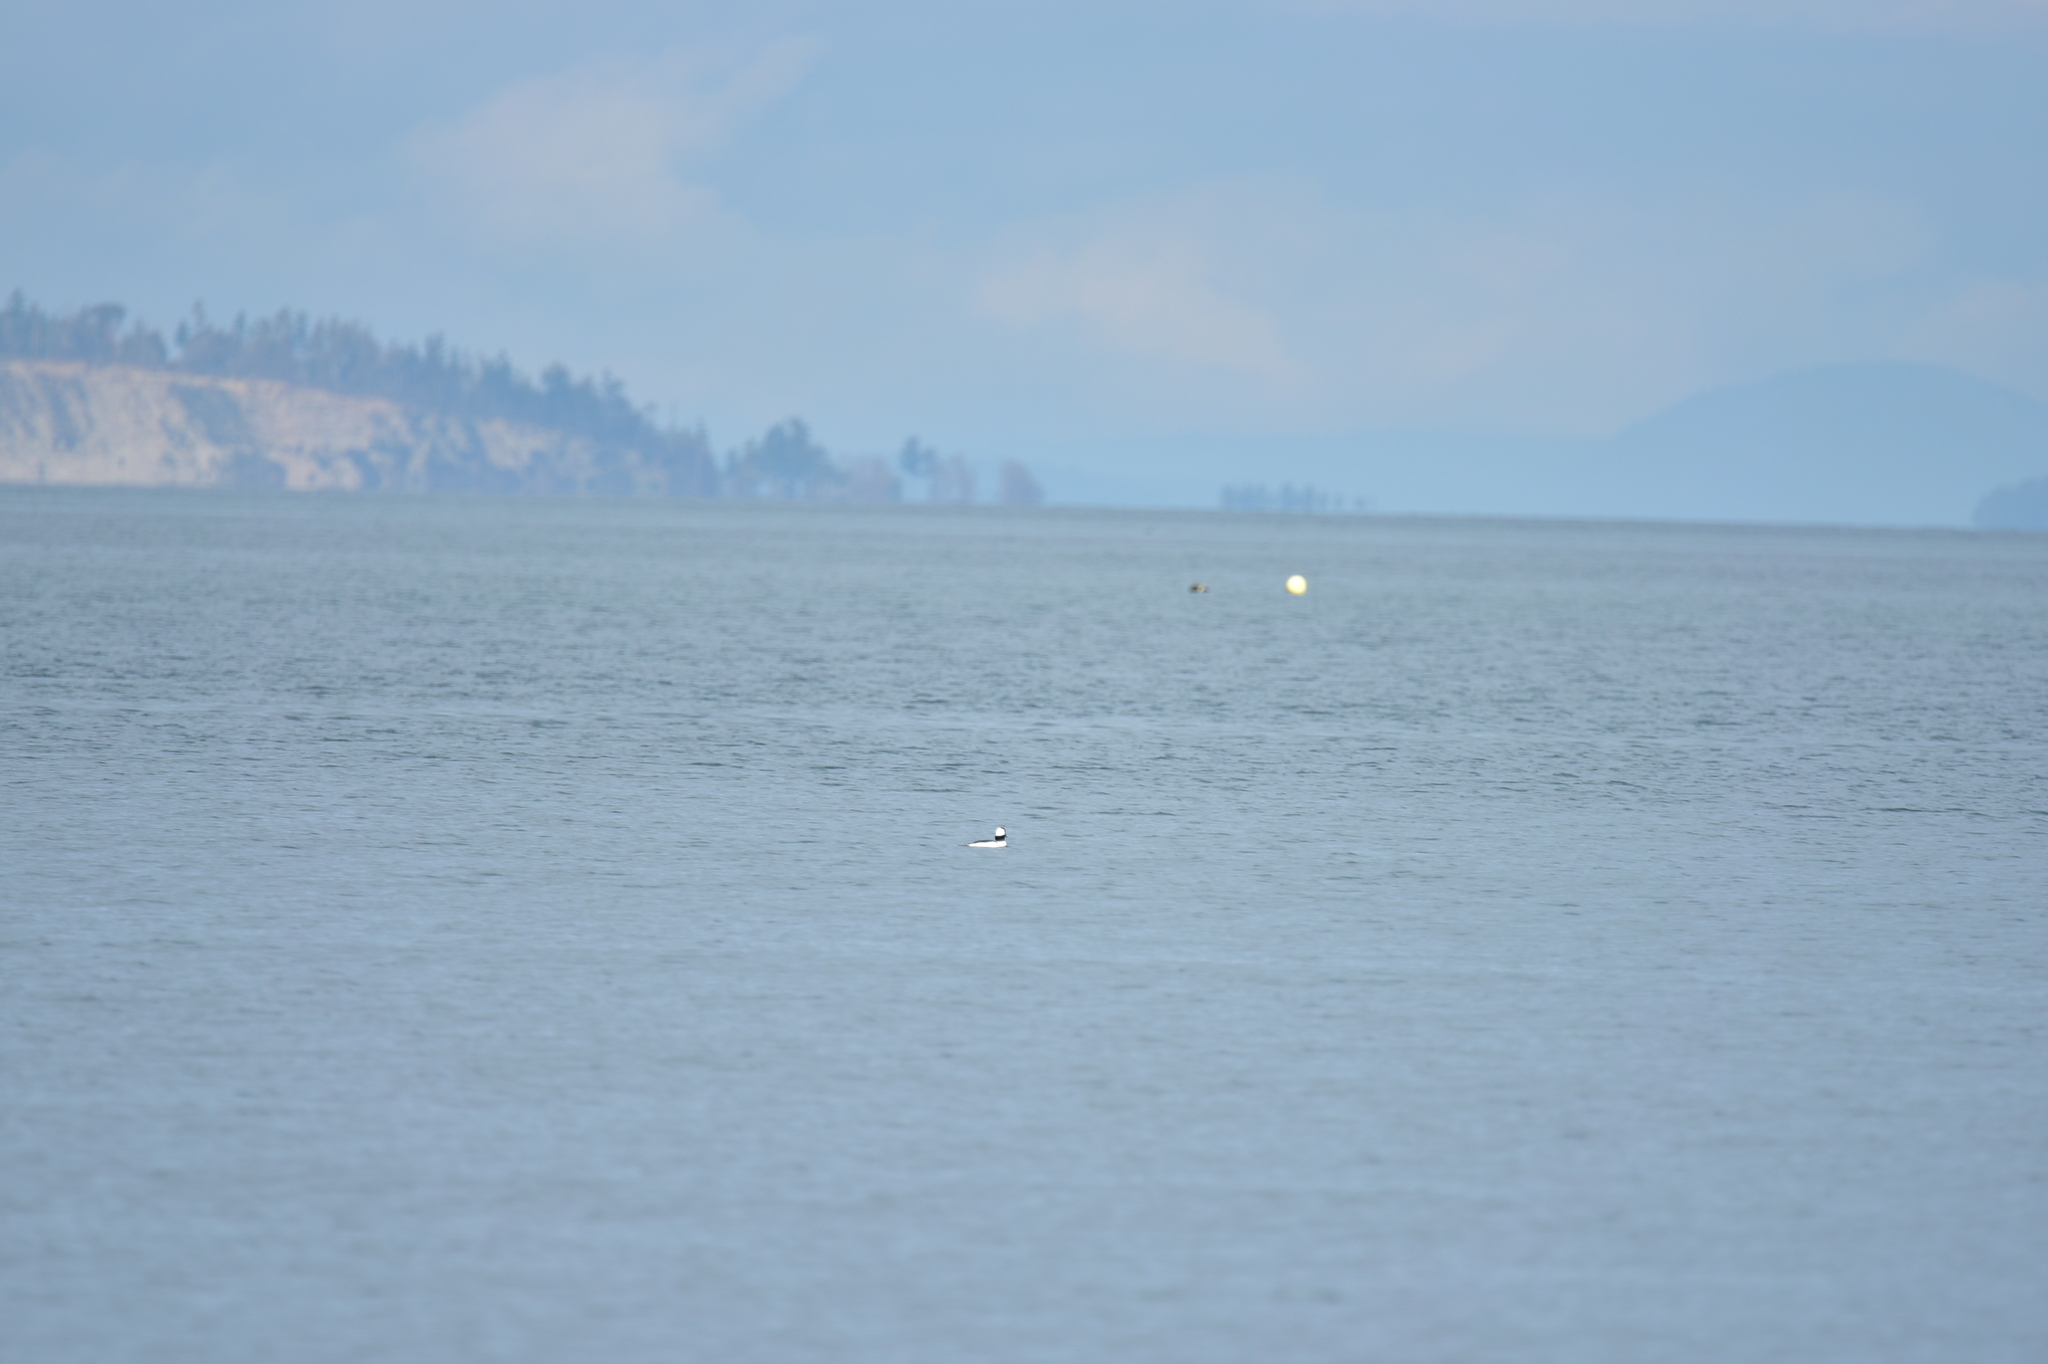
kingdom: Animalia
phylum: Chordata
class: Aves
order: Anseriformes
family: Anatidae
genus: Bucephala
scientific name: Bucephala albeola
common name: Bufflehead
